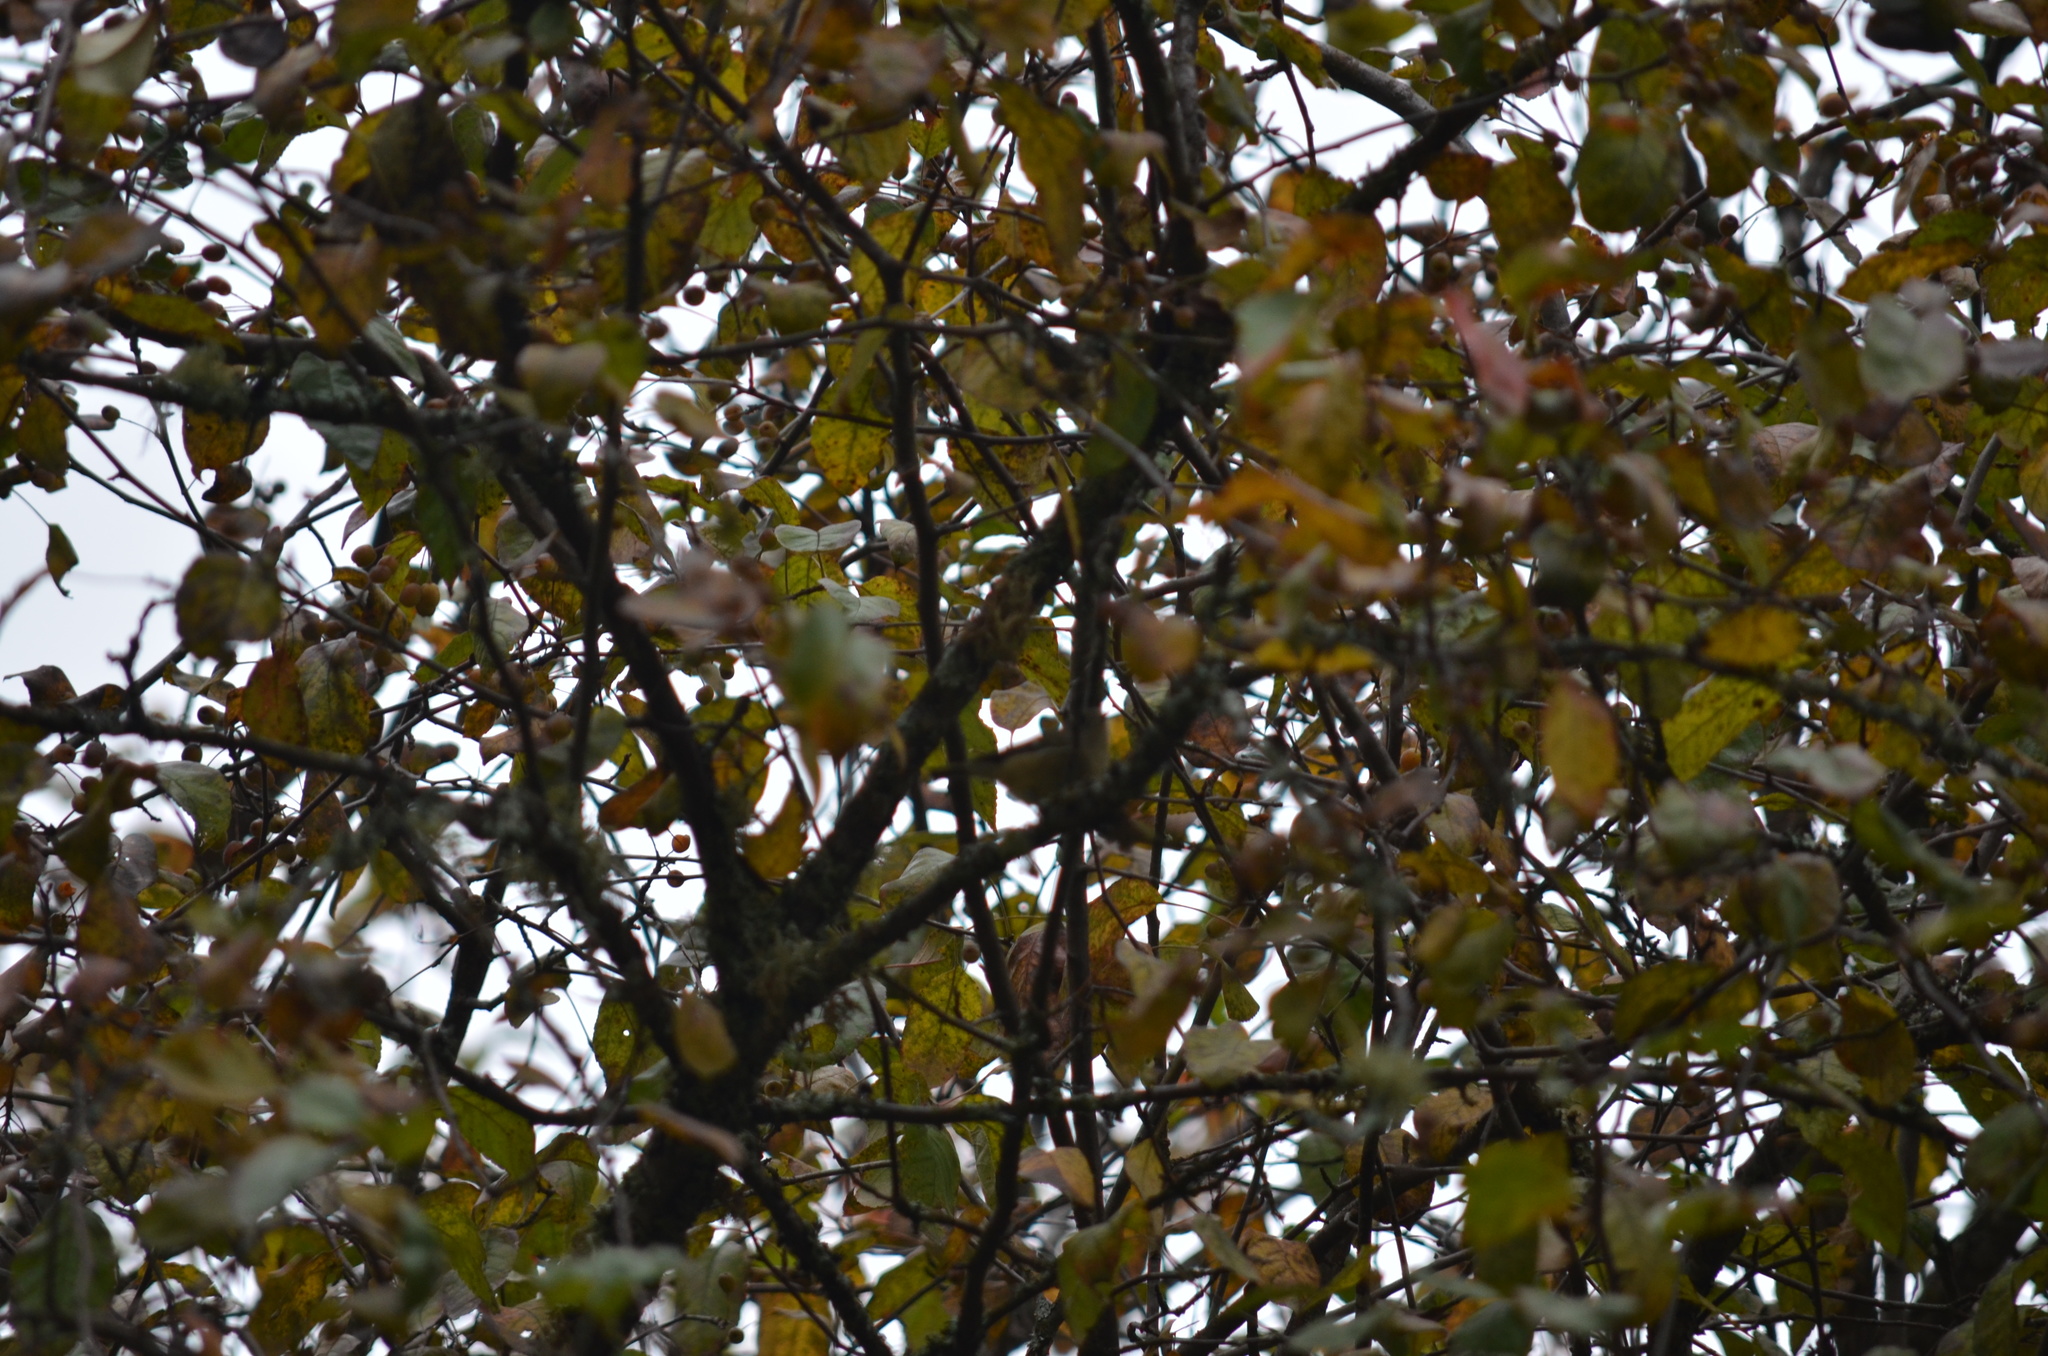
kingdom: Animalia
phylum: Chordata
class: Aves
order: Passeriformes
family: Regulidae
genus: Regulus
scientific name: Regulus calendula
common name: Ruby-crowned kinglet
